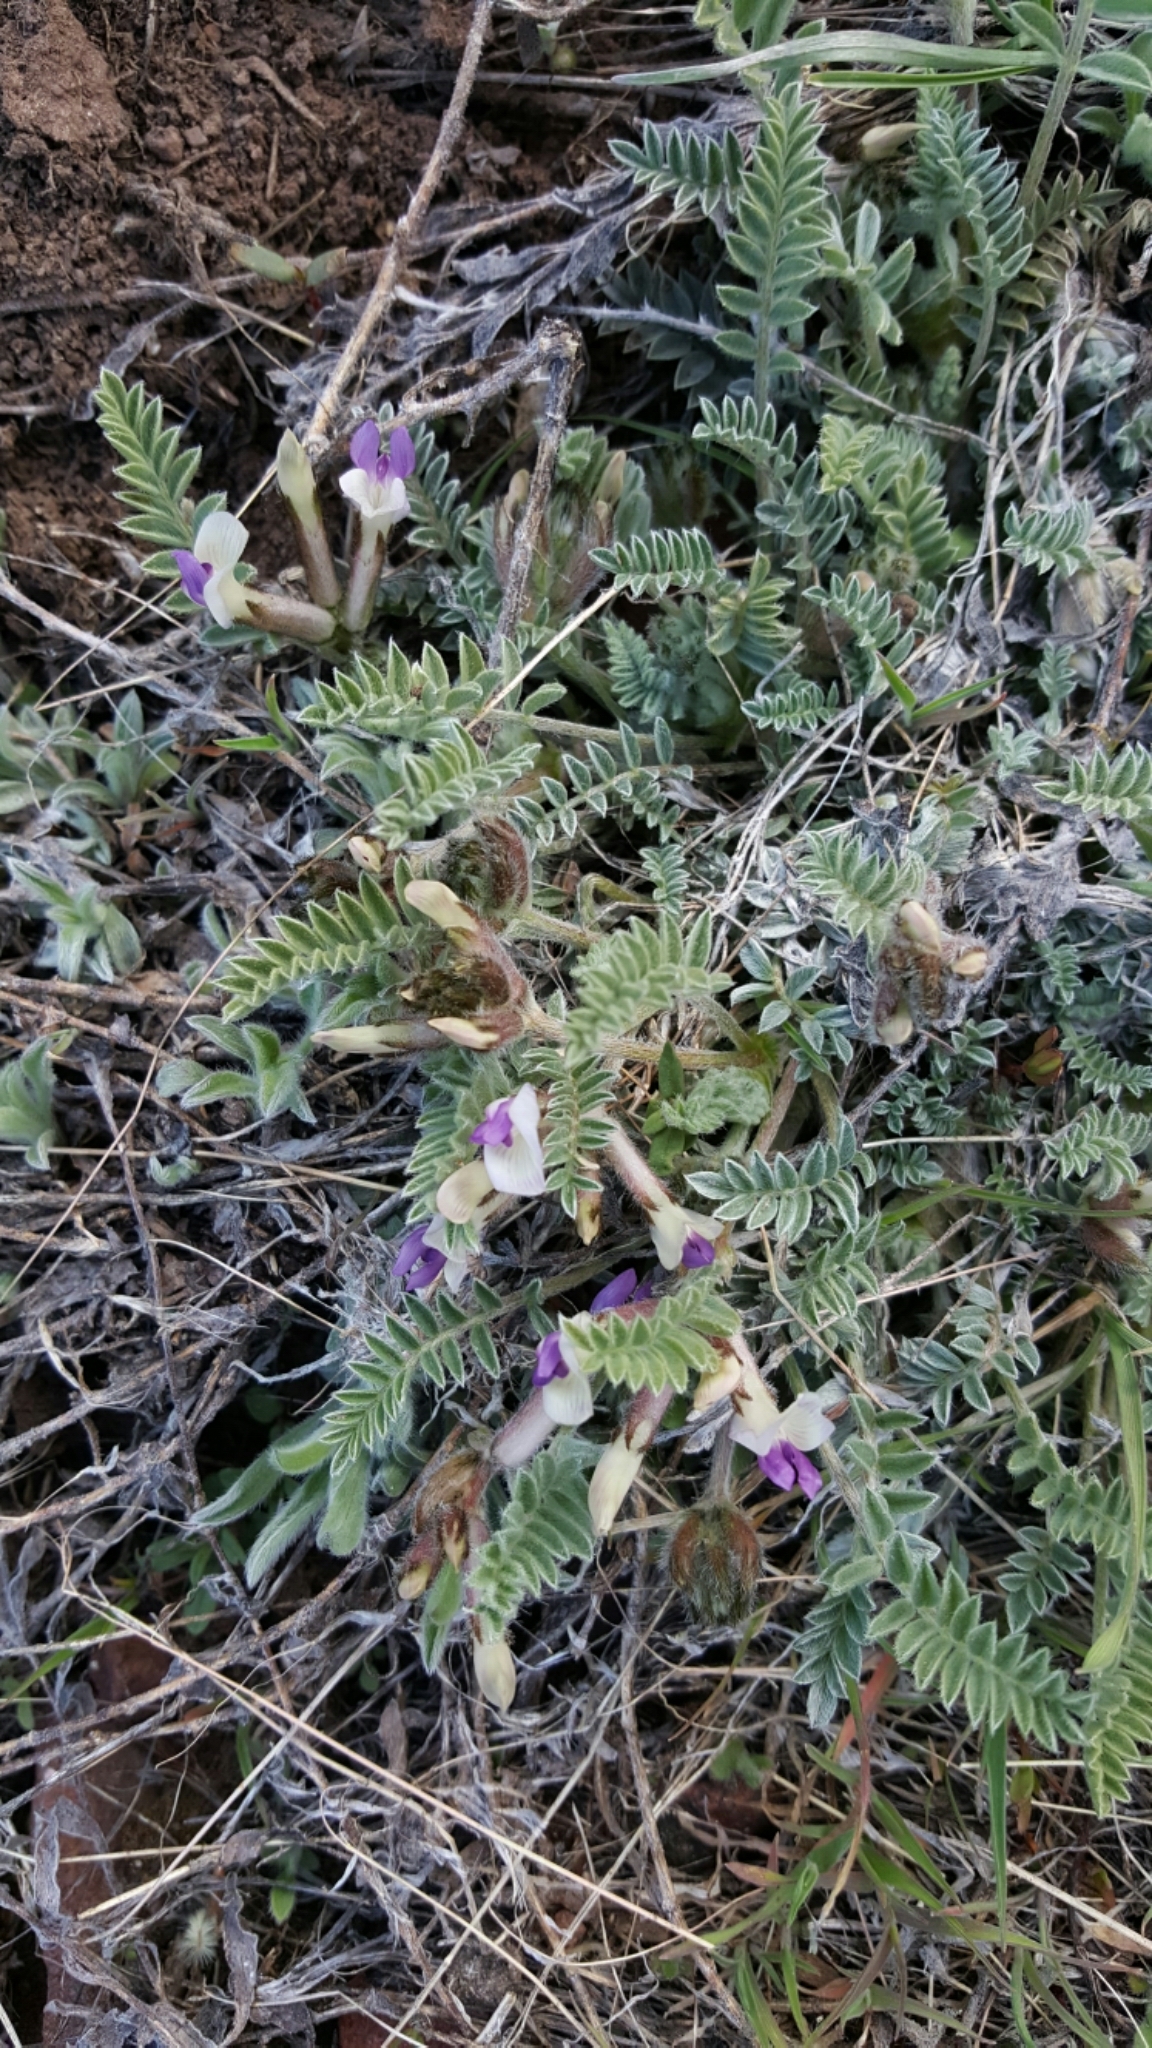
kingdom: Plantae
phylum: Tracheophyta
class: Magnoliopsida
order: Fabales
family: Fabaceae
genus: Astragalus
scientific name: Astragalus purshii
